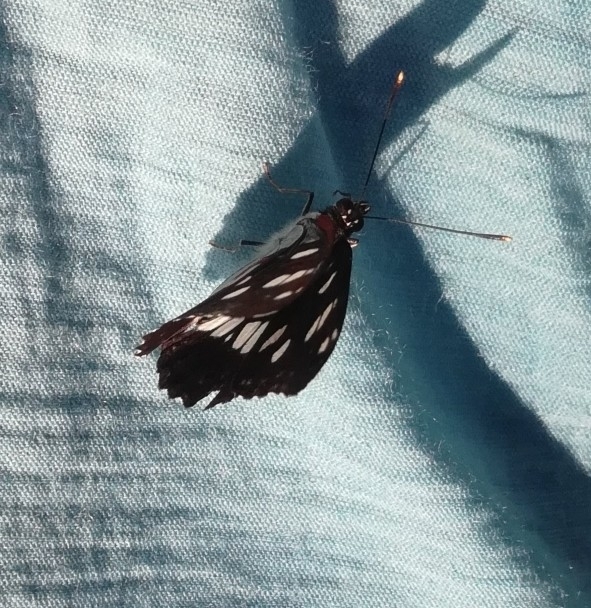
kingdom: Animalia
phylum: Arthropoda
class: Insecta
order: Lepidoptera
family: Nymphalidae
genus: Limenitis
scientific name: Limenitis reducta
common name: Southern white admiral
